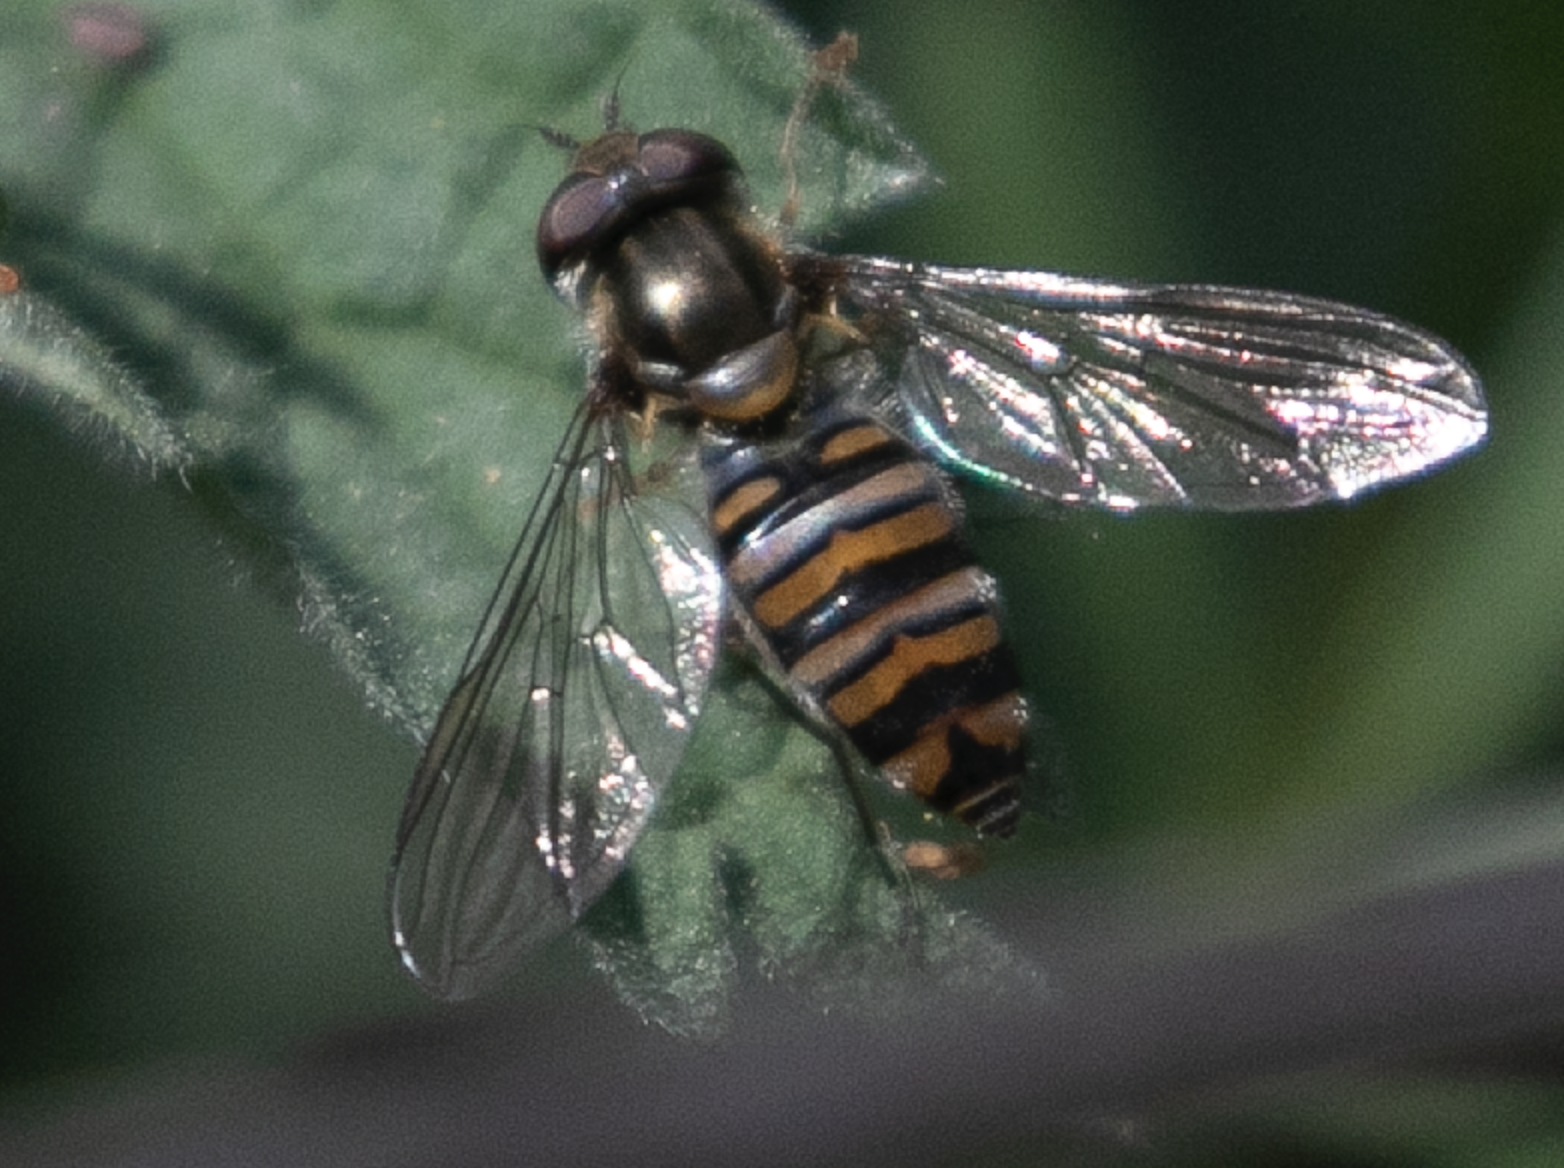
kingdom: Animalia
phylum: Arthropoda
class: Insecta
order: Diptera
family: Syrphidae
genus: Episyrphus
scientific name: Episyrphus balteatus
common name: Marmalade hoverfly
